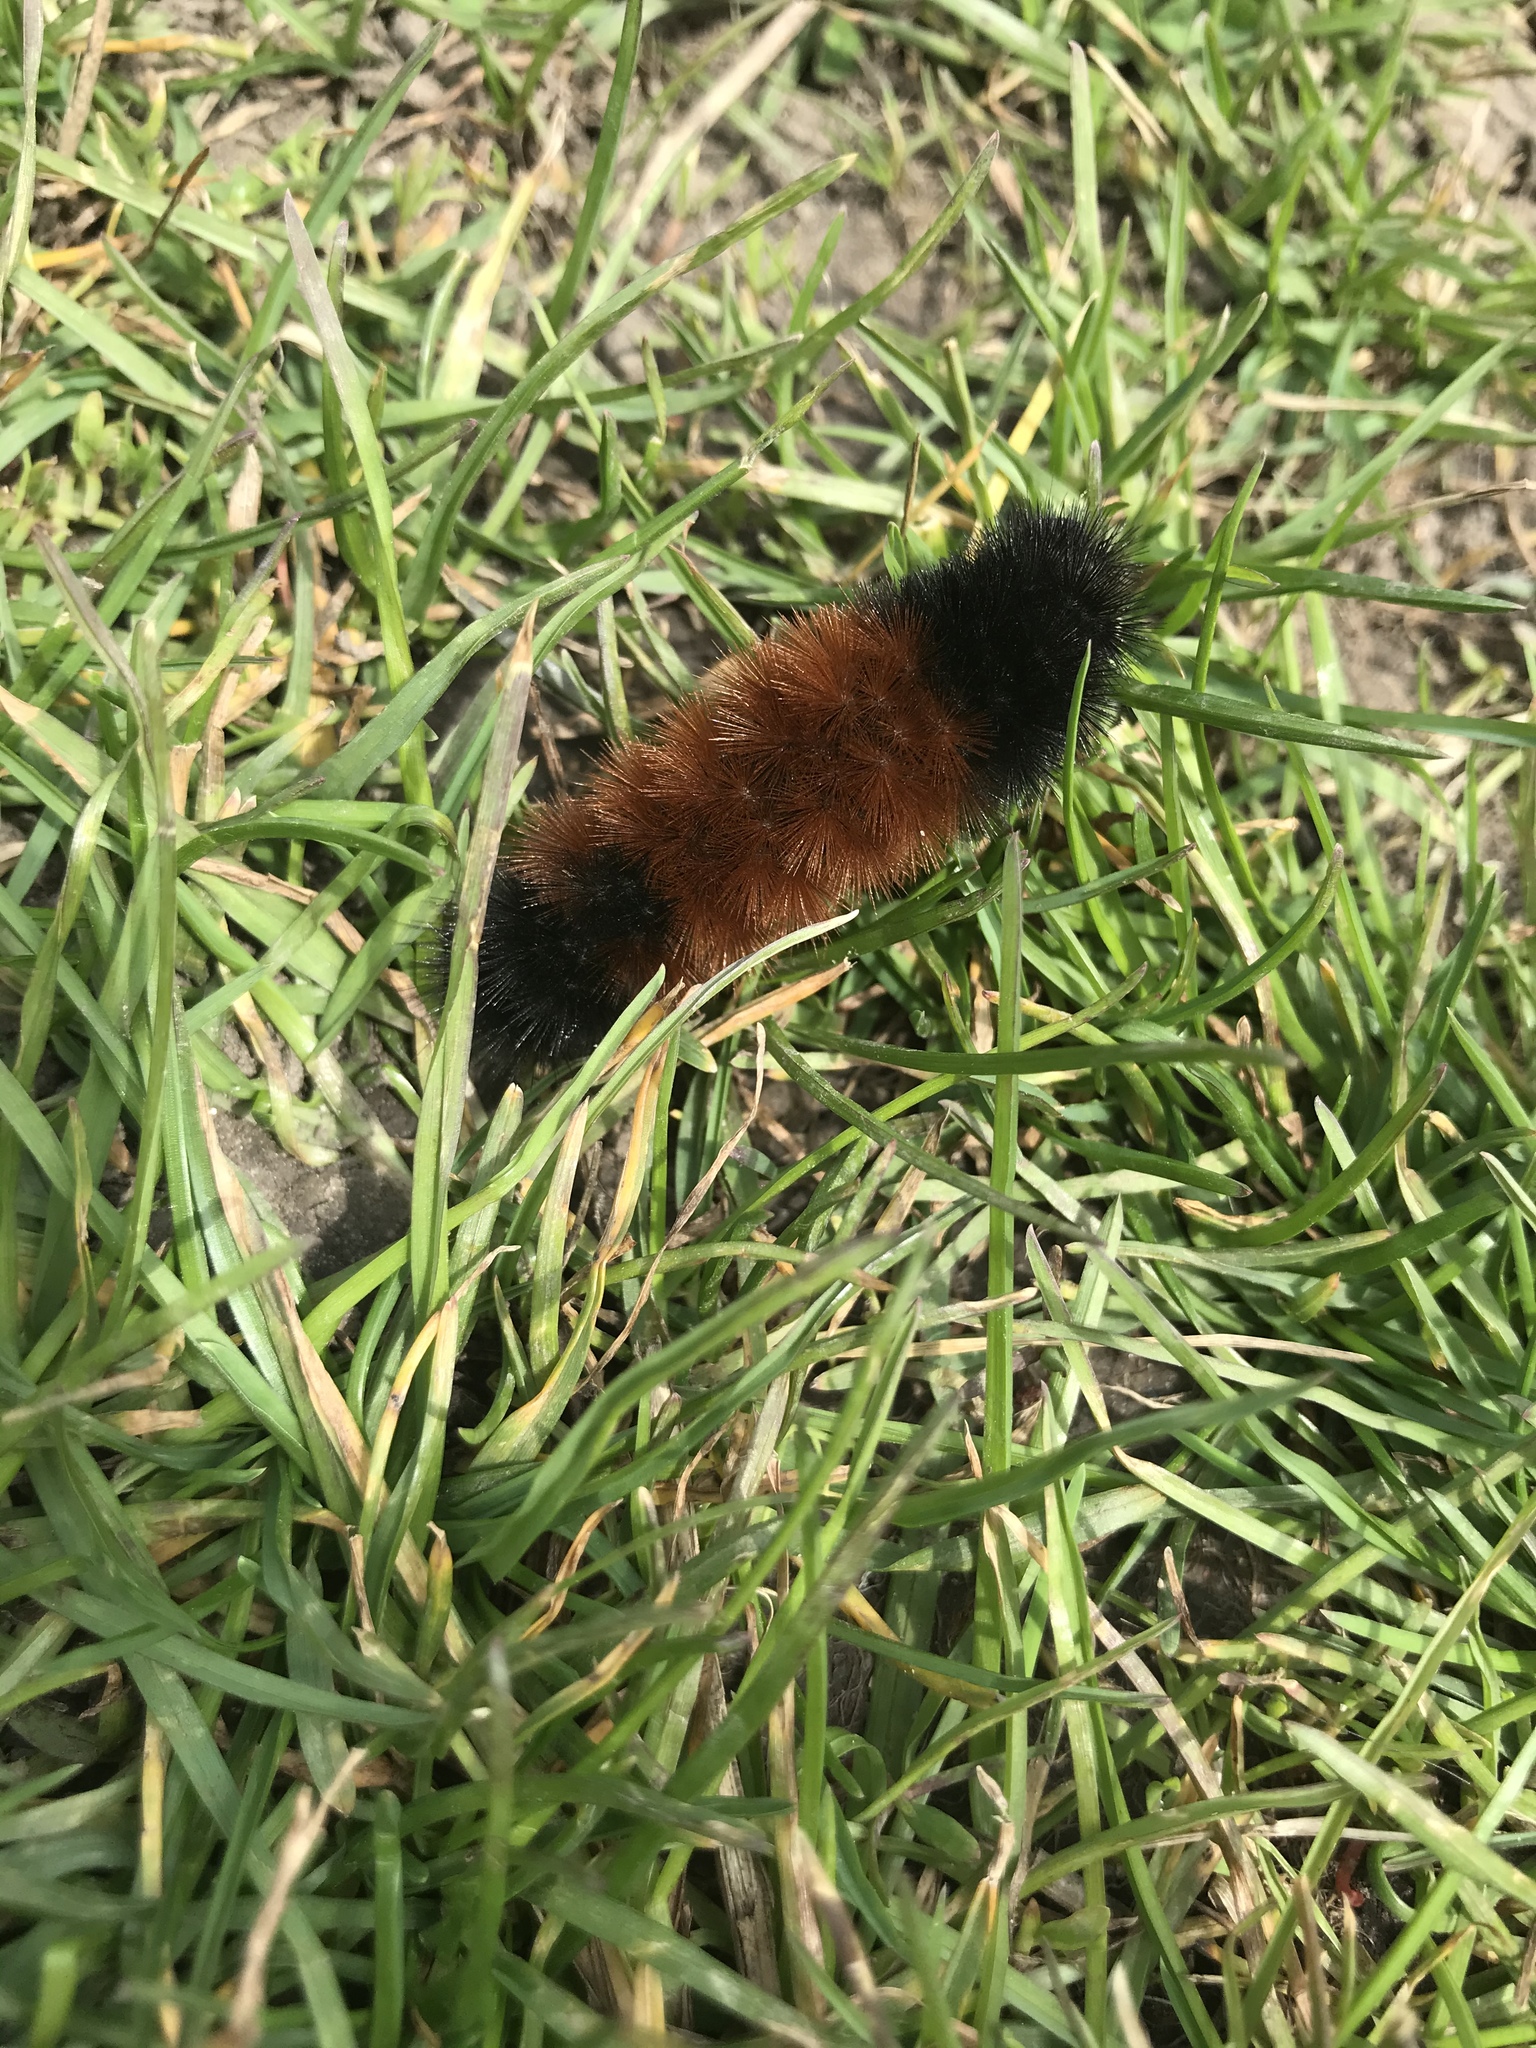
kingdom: Animalia
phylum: Arthropoda
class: Insecta
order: Lepidoptera
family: Erebidae
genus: Pyrrharctia
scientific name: Pyrrharctia isabella
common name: Isabella tiger moth
